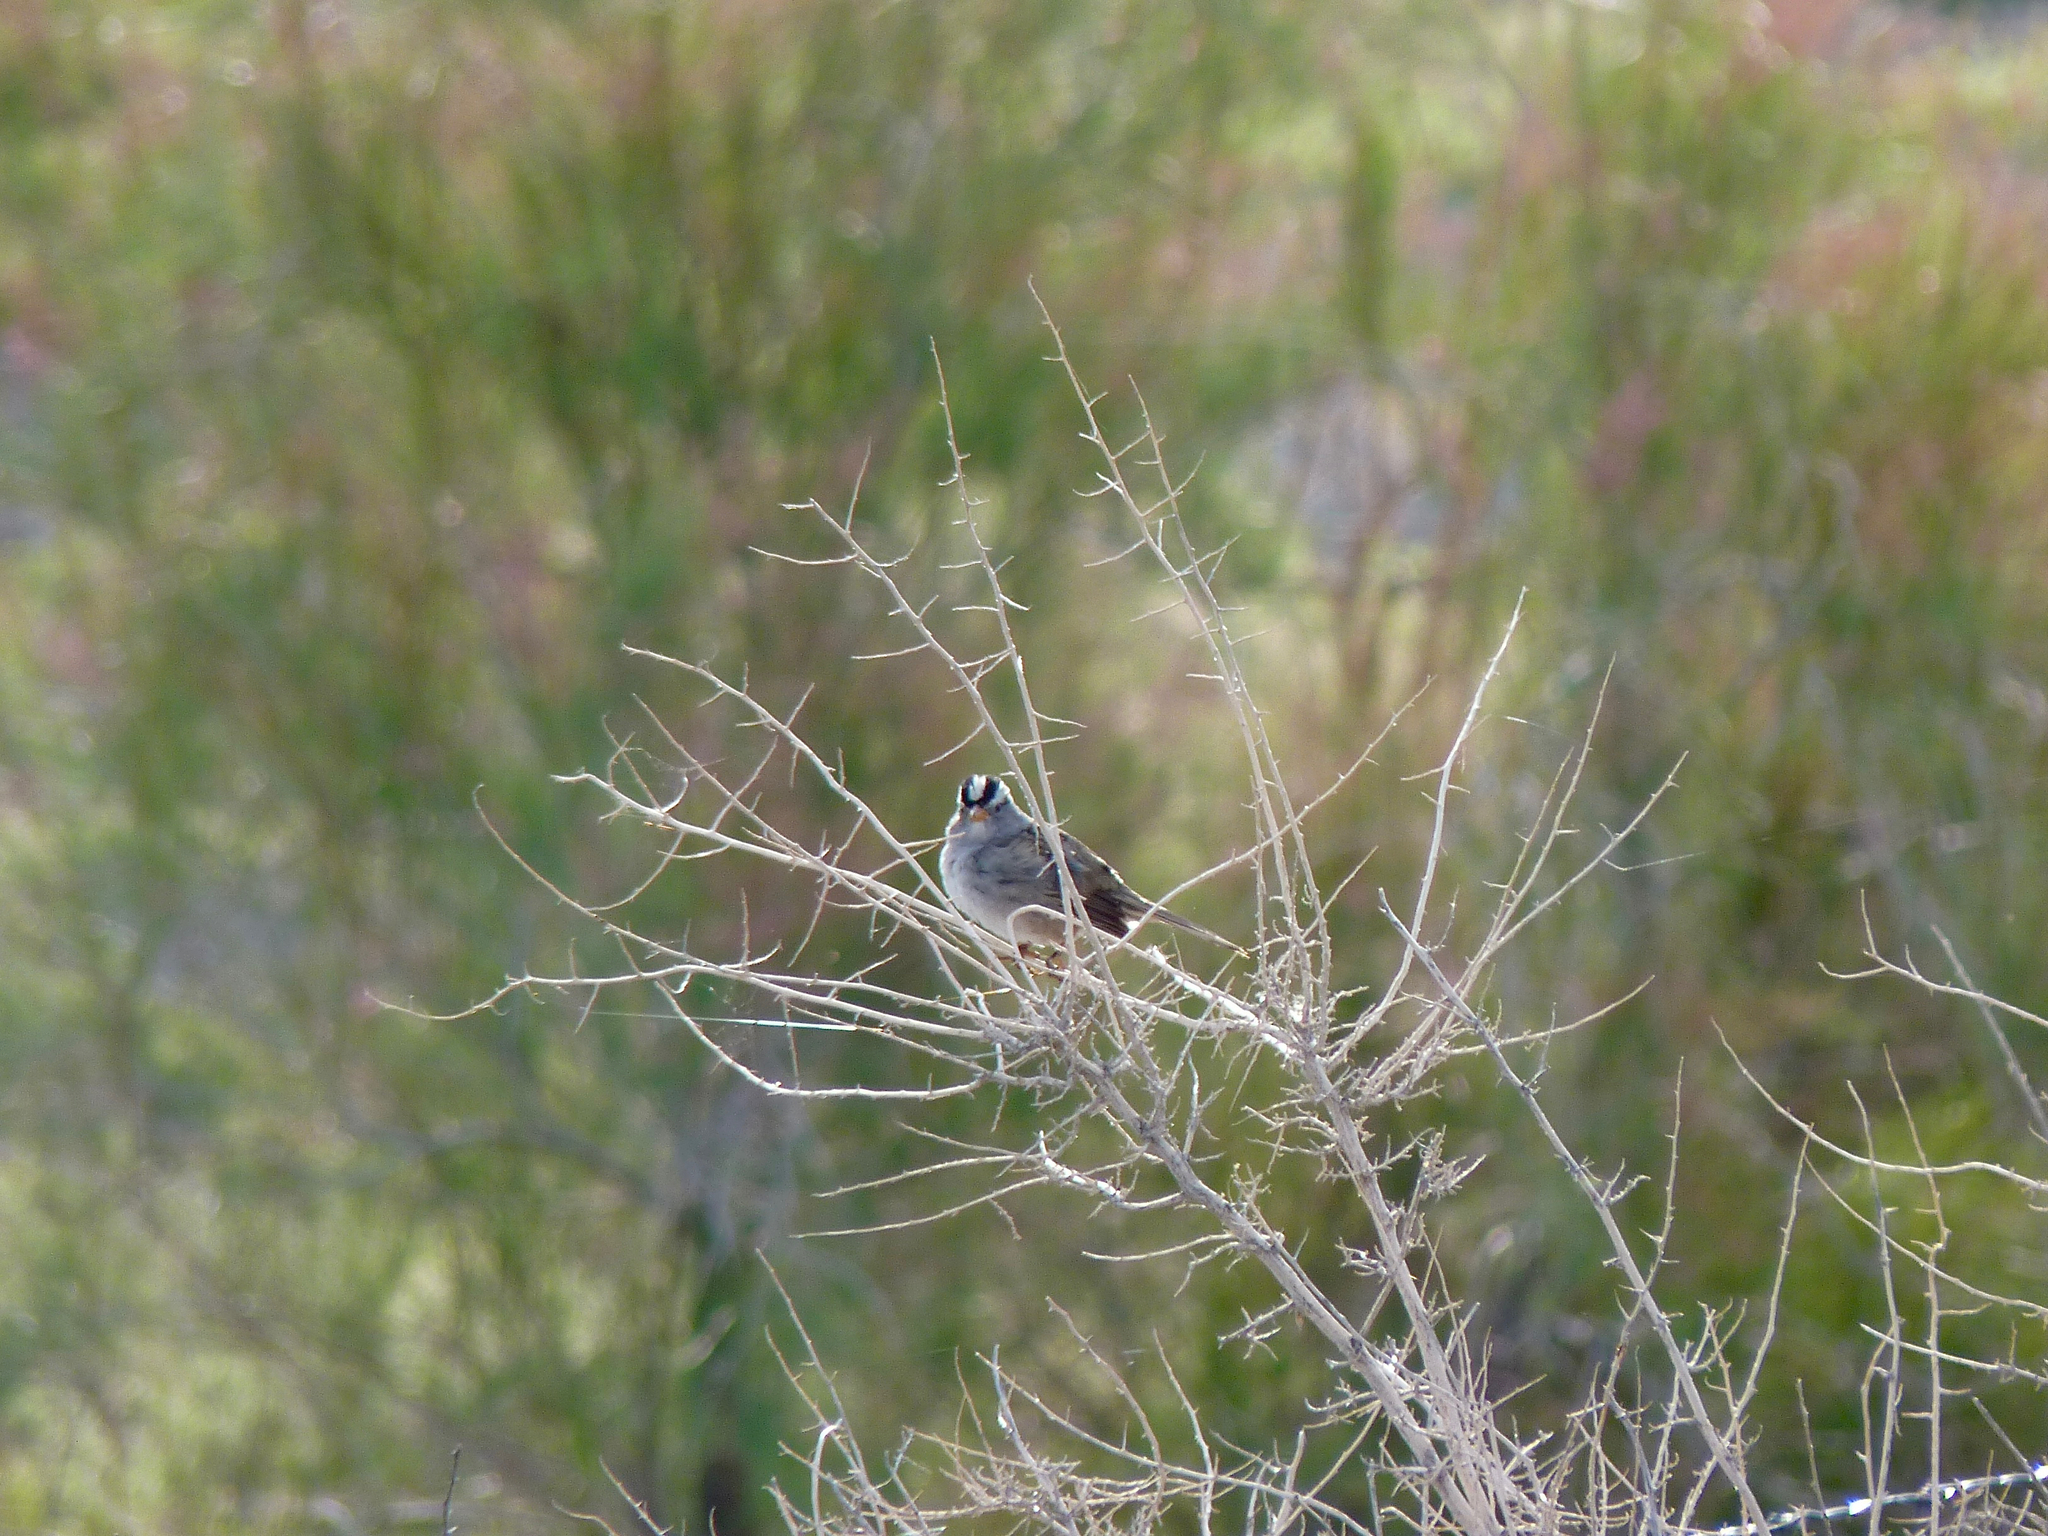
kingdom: Animalia
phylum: Chordata
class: Aves
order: Passeriformes
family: Passerellidae
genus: Zonotrichia
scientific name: Zonotrichia leucophrys
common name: White-crowned sparrow
